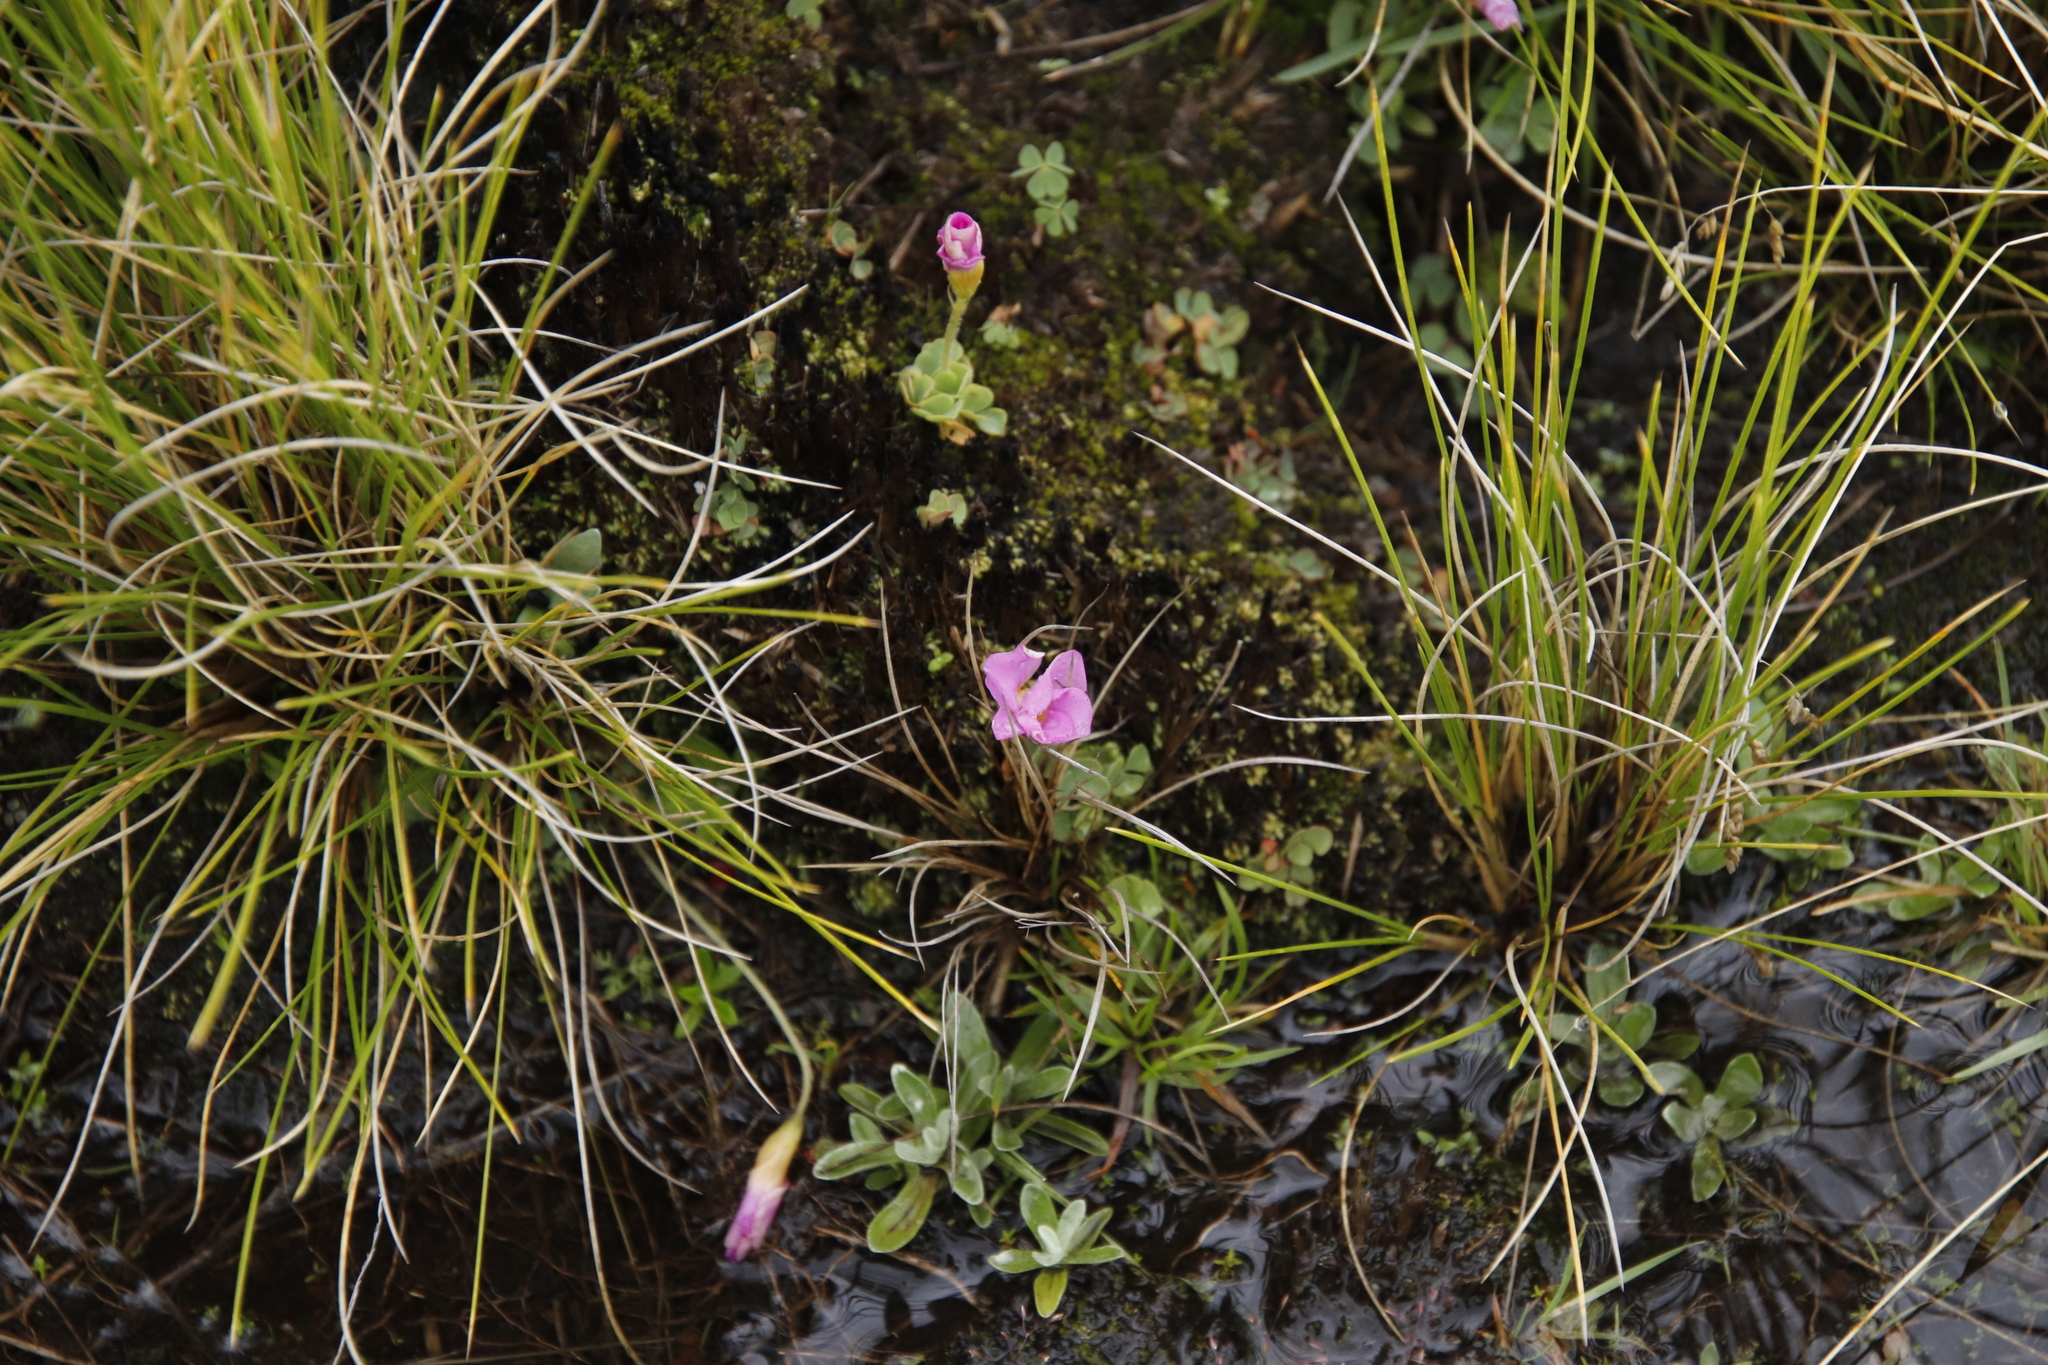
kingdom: Plantae
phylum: Tracheophyta
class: Magnoliopsida
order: Oxalidales
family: Oxalidaceae
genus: Oxalis
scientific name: Oxalis obliquifolia
